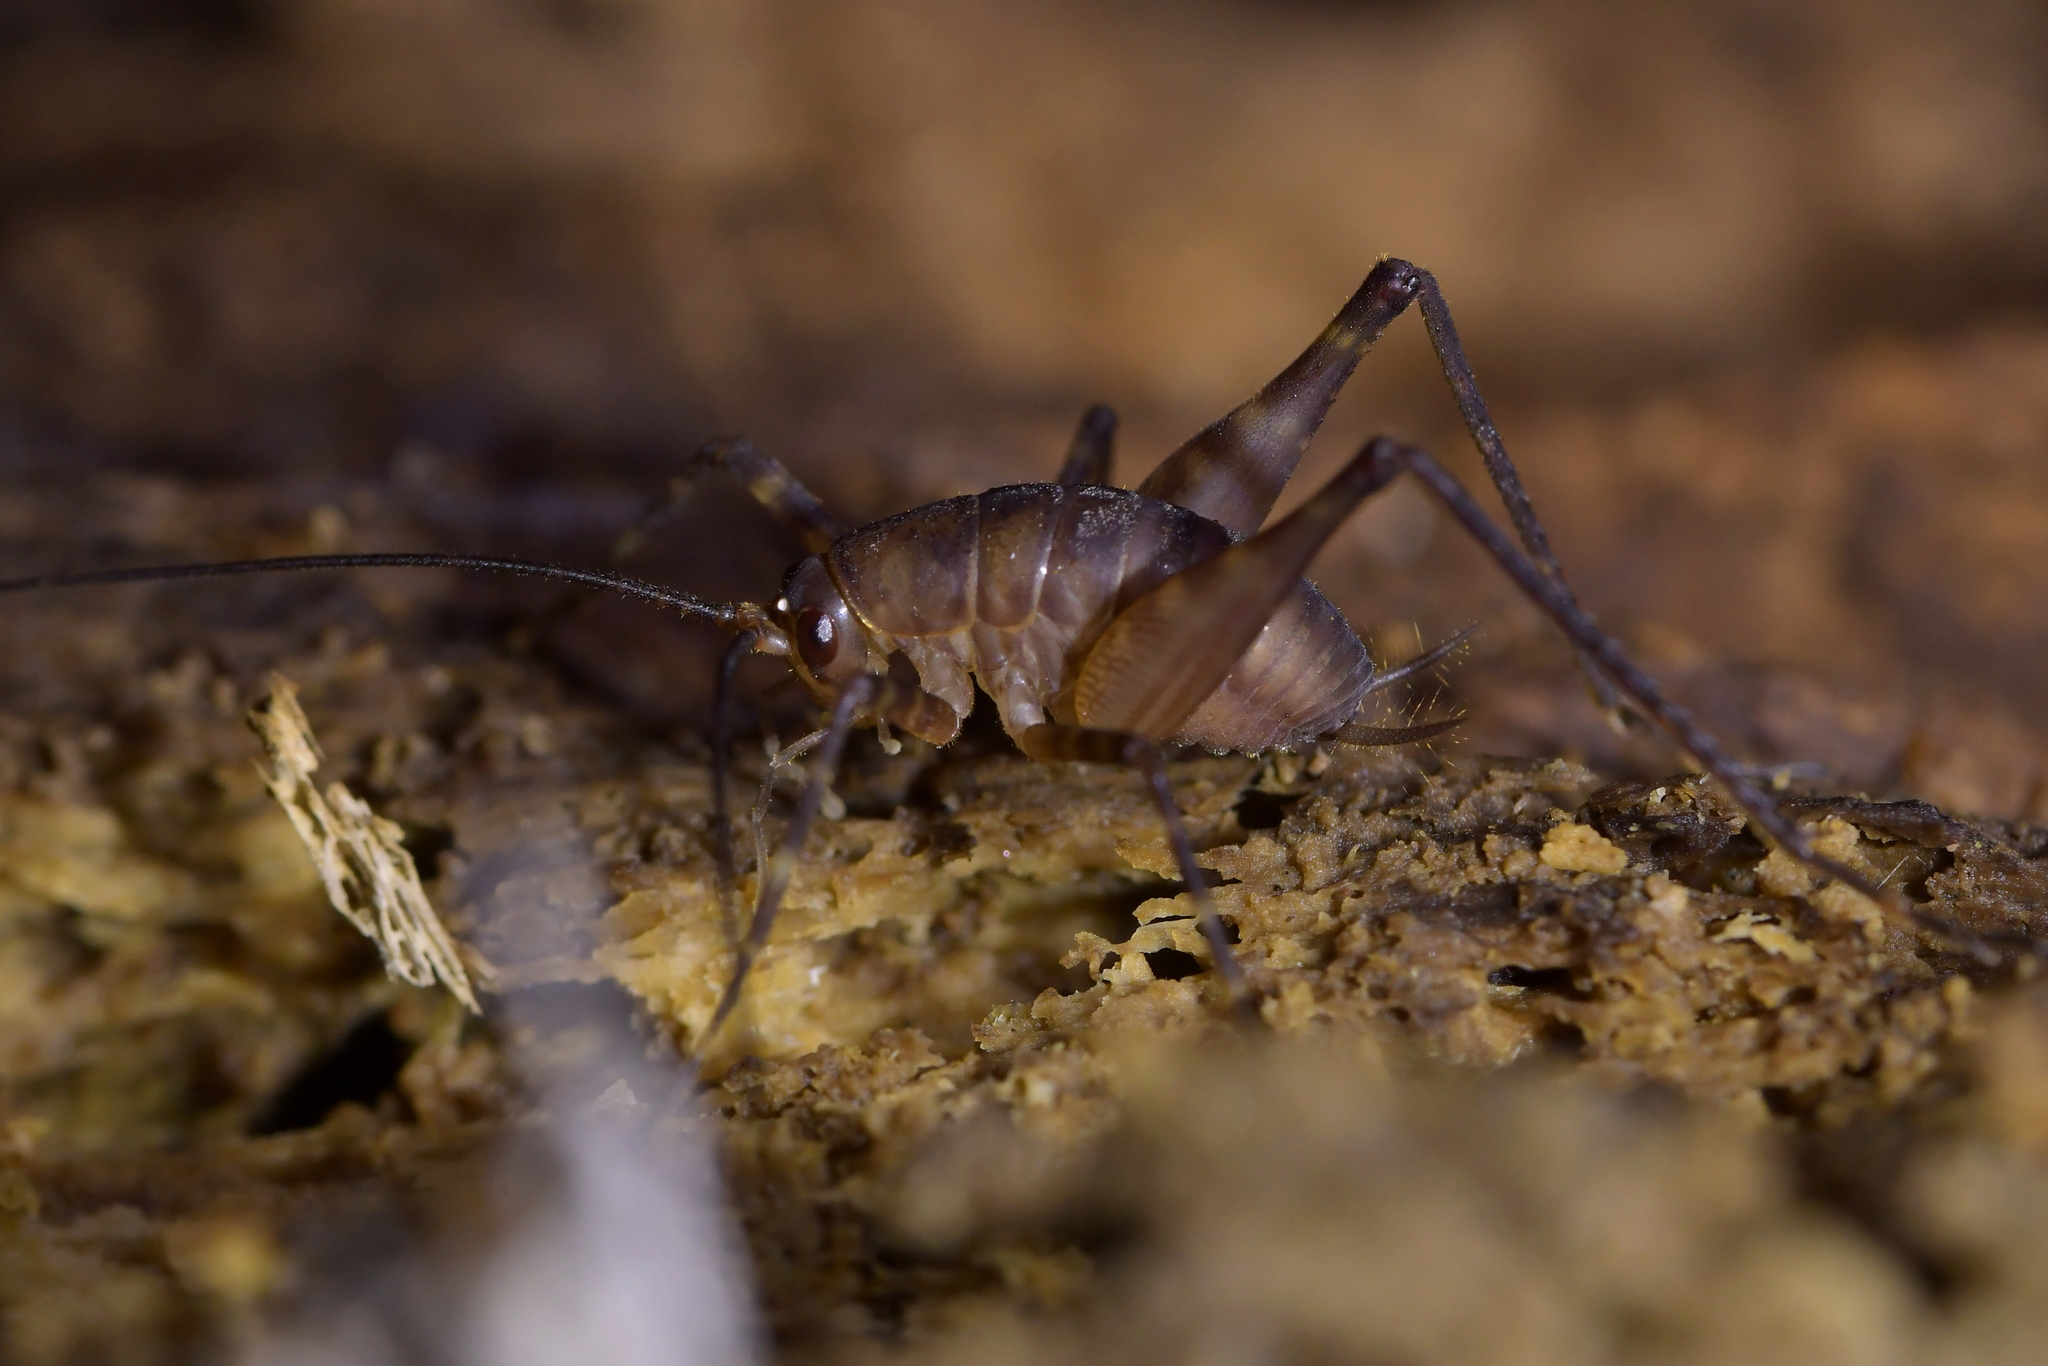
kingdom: Animalia
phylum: Arthropoda
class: Insecta
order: Orthoptera
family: Rhaphidophoridae
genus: Pachyrhamma
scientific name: Pachyrhamma longipes
